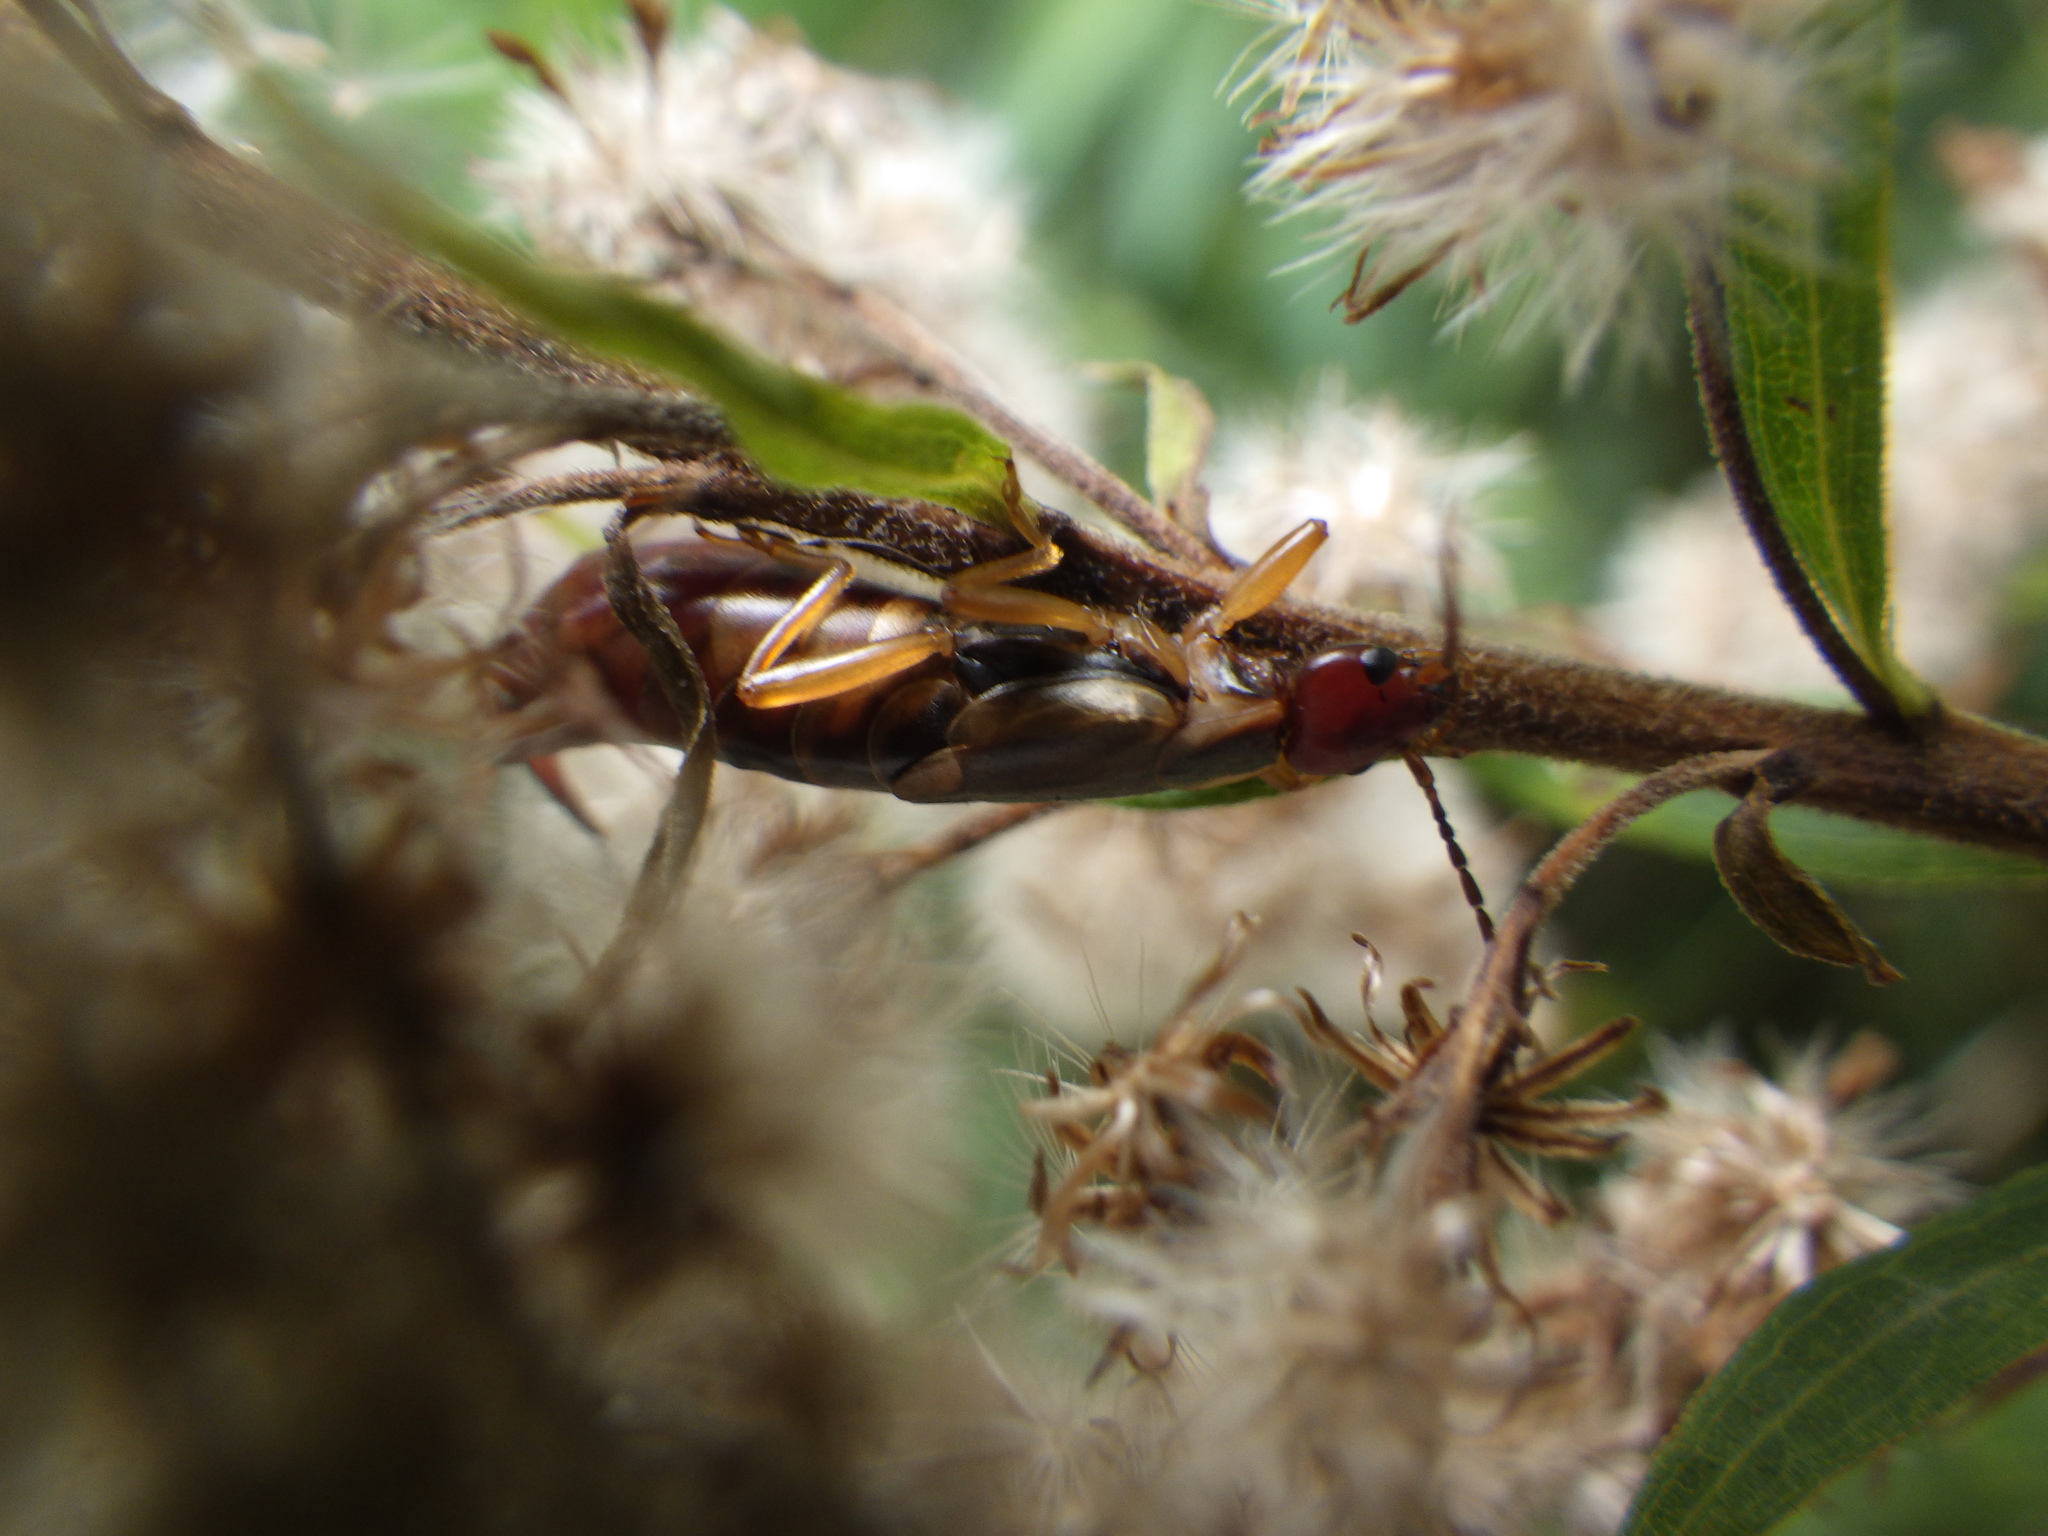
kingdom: Animalia
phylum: Arthropoda
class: Insecta
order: Dermaptera
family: Forficulidae
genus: Forficula
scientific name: Forficula
